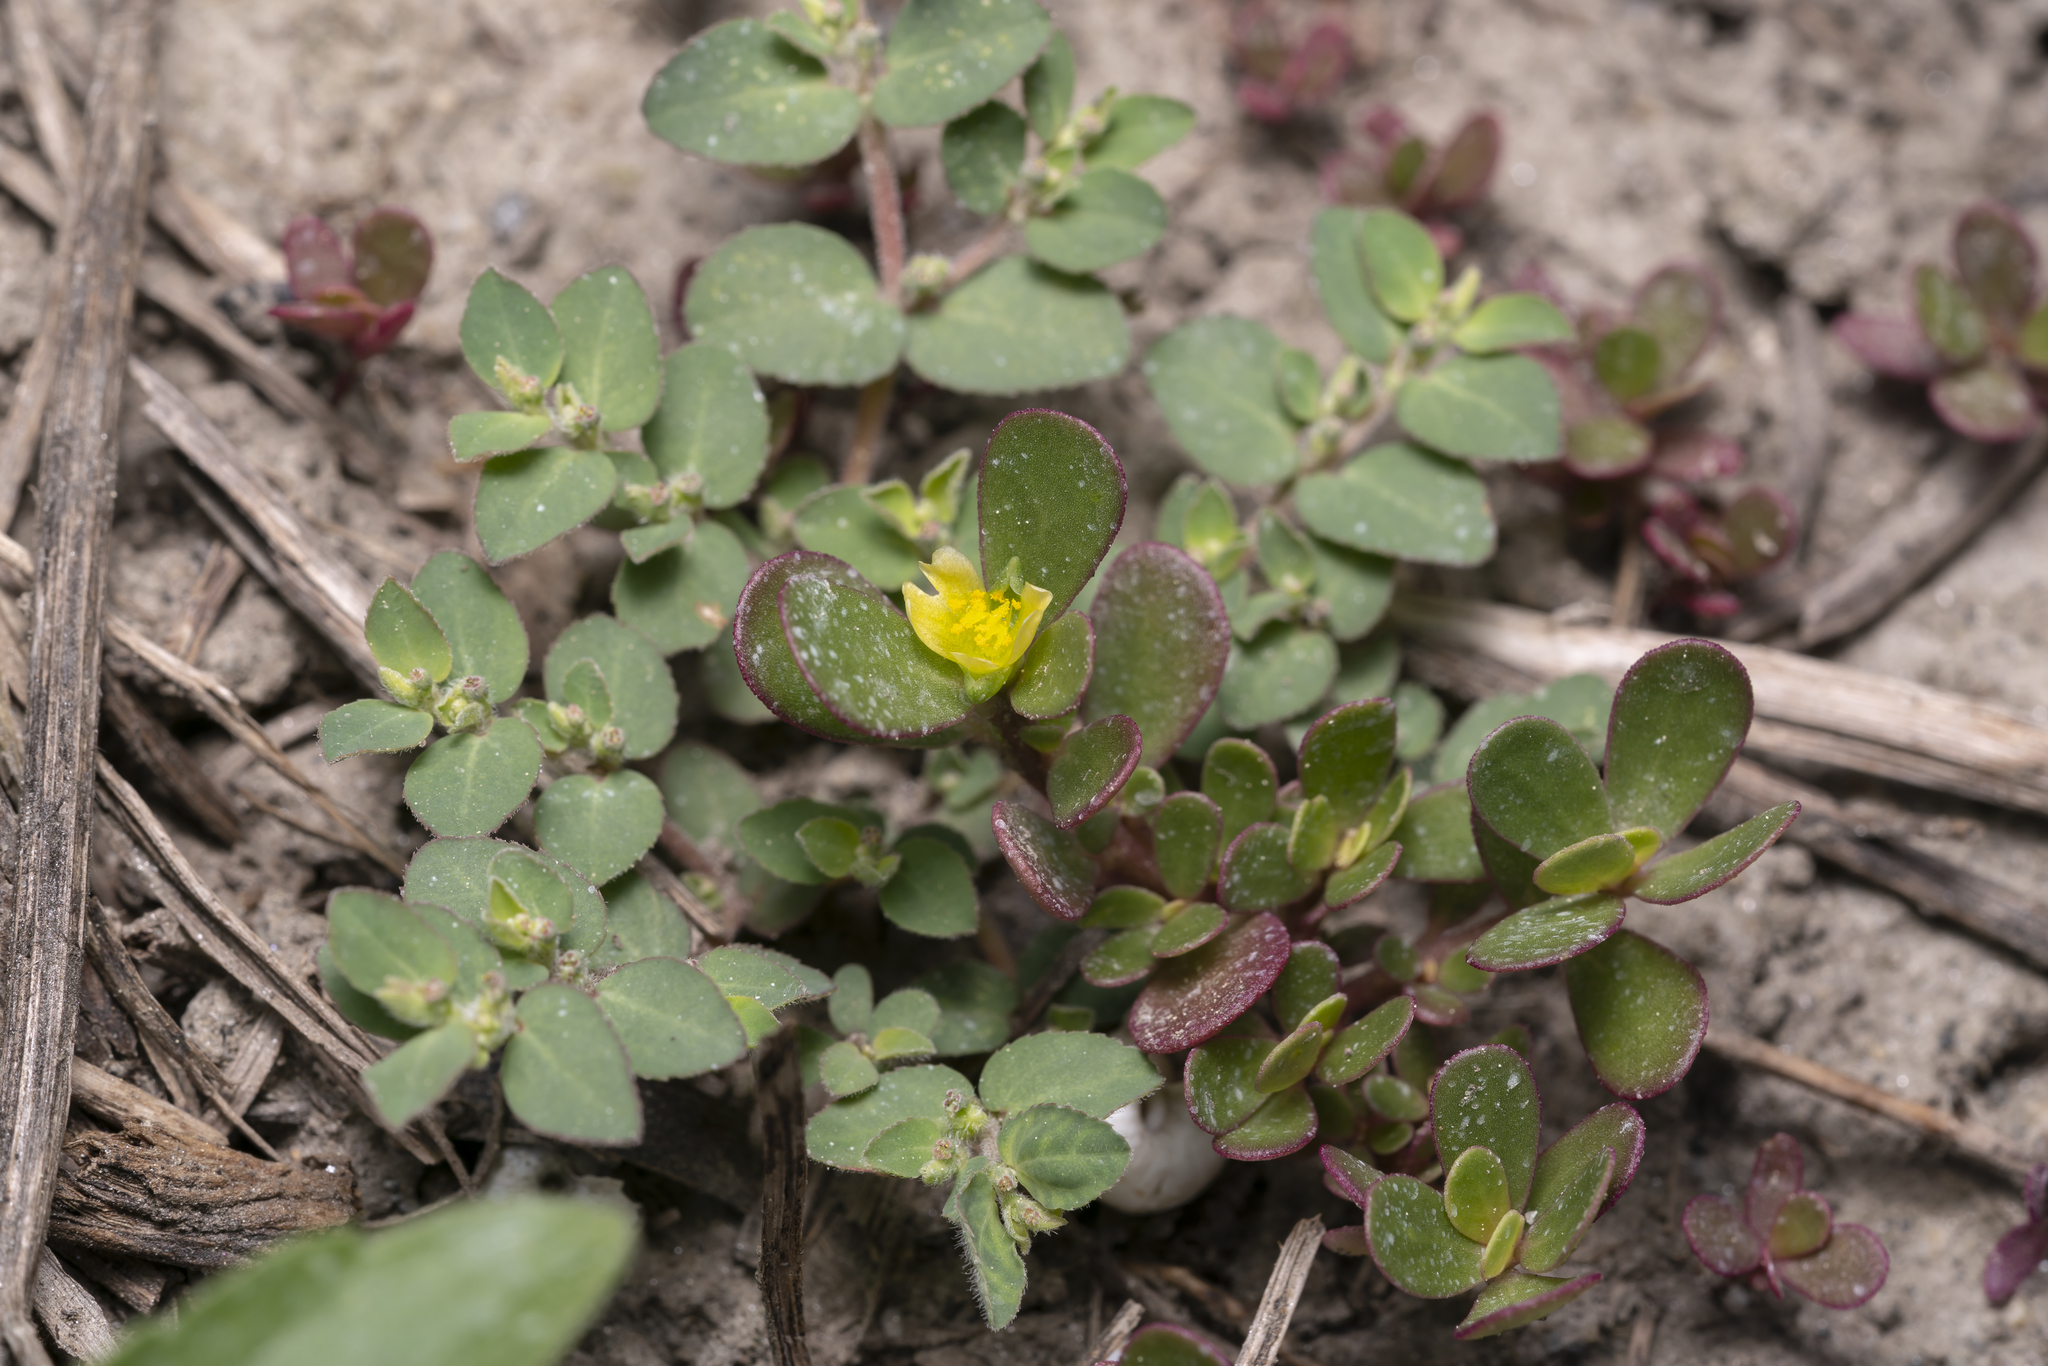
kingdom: Plantae
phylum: Tracheophyta
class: Magnoliopsida
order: Caryophyllales
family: Portulacaceae
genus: Portulaca
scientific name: Portulaca oleracea
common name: Common purslane
